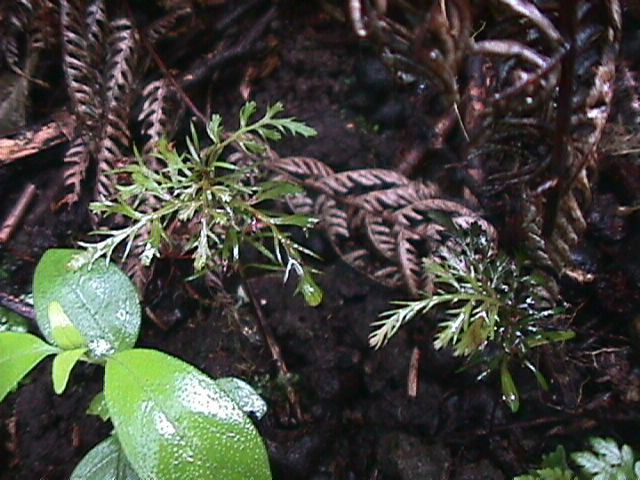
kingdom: Plantae
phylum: Tracheophyta
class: Pinopsida
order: Pinales
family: Phyllocladaceae
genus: Phyllocladus
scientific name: Phyllocladus trichomanoides
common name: Celery pine
